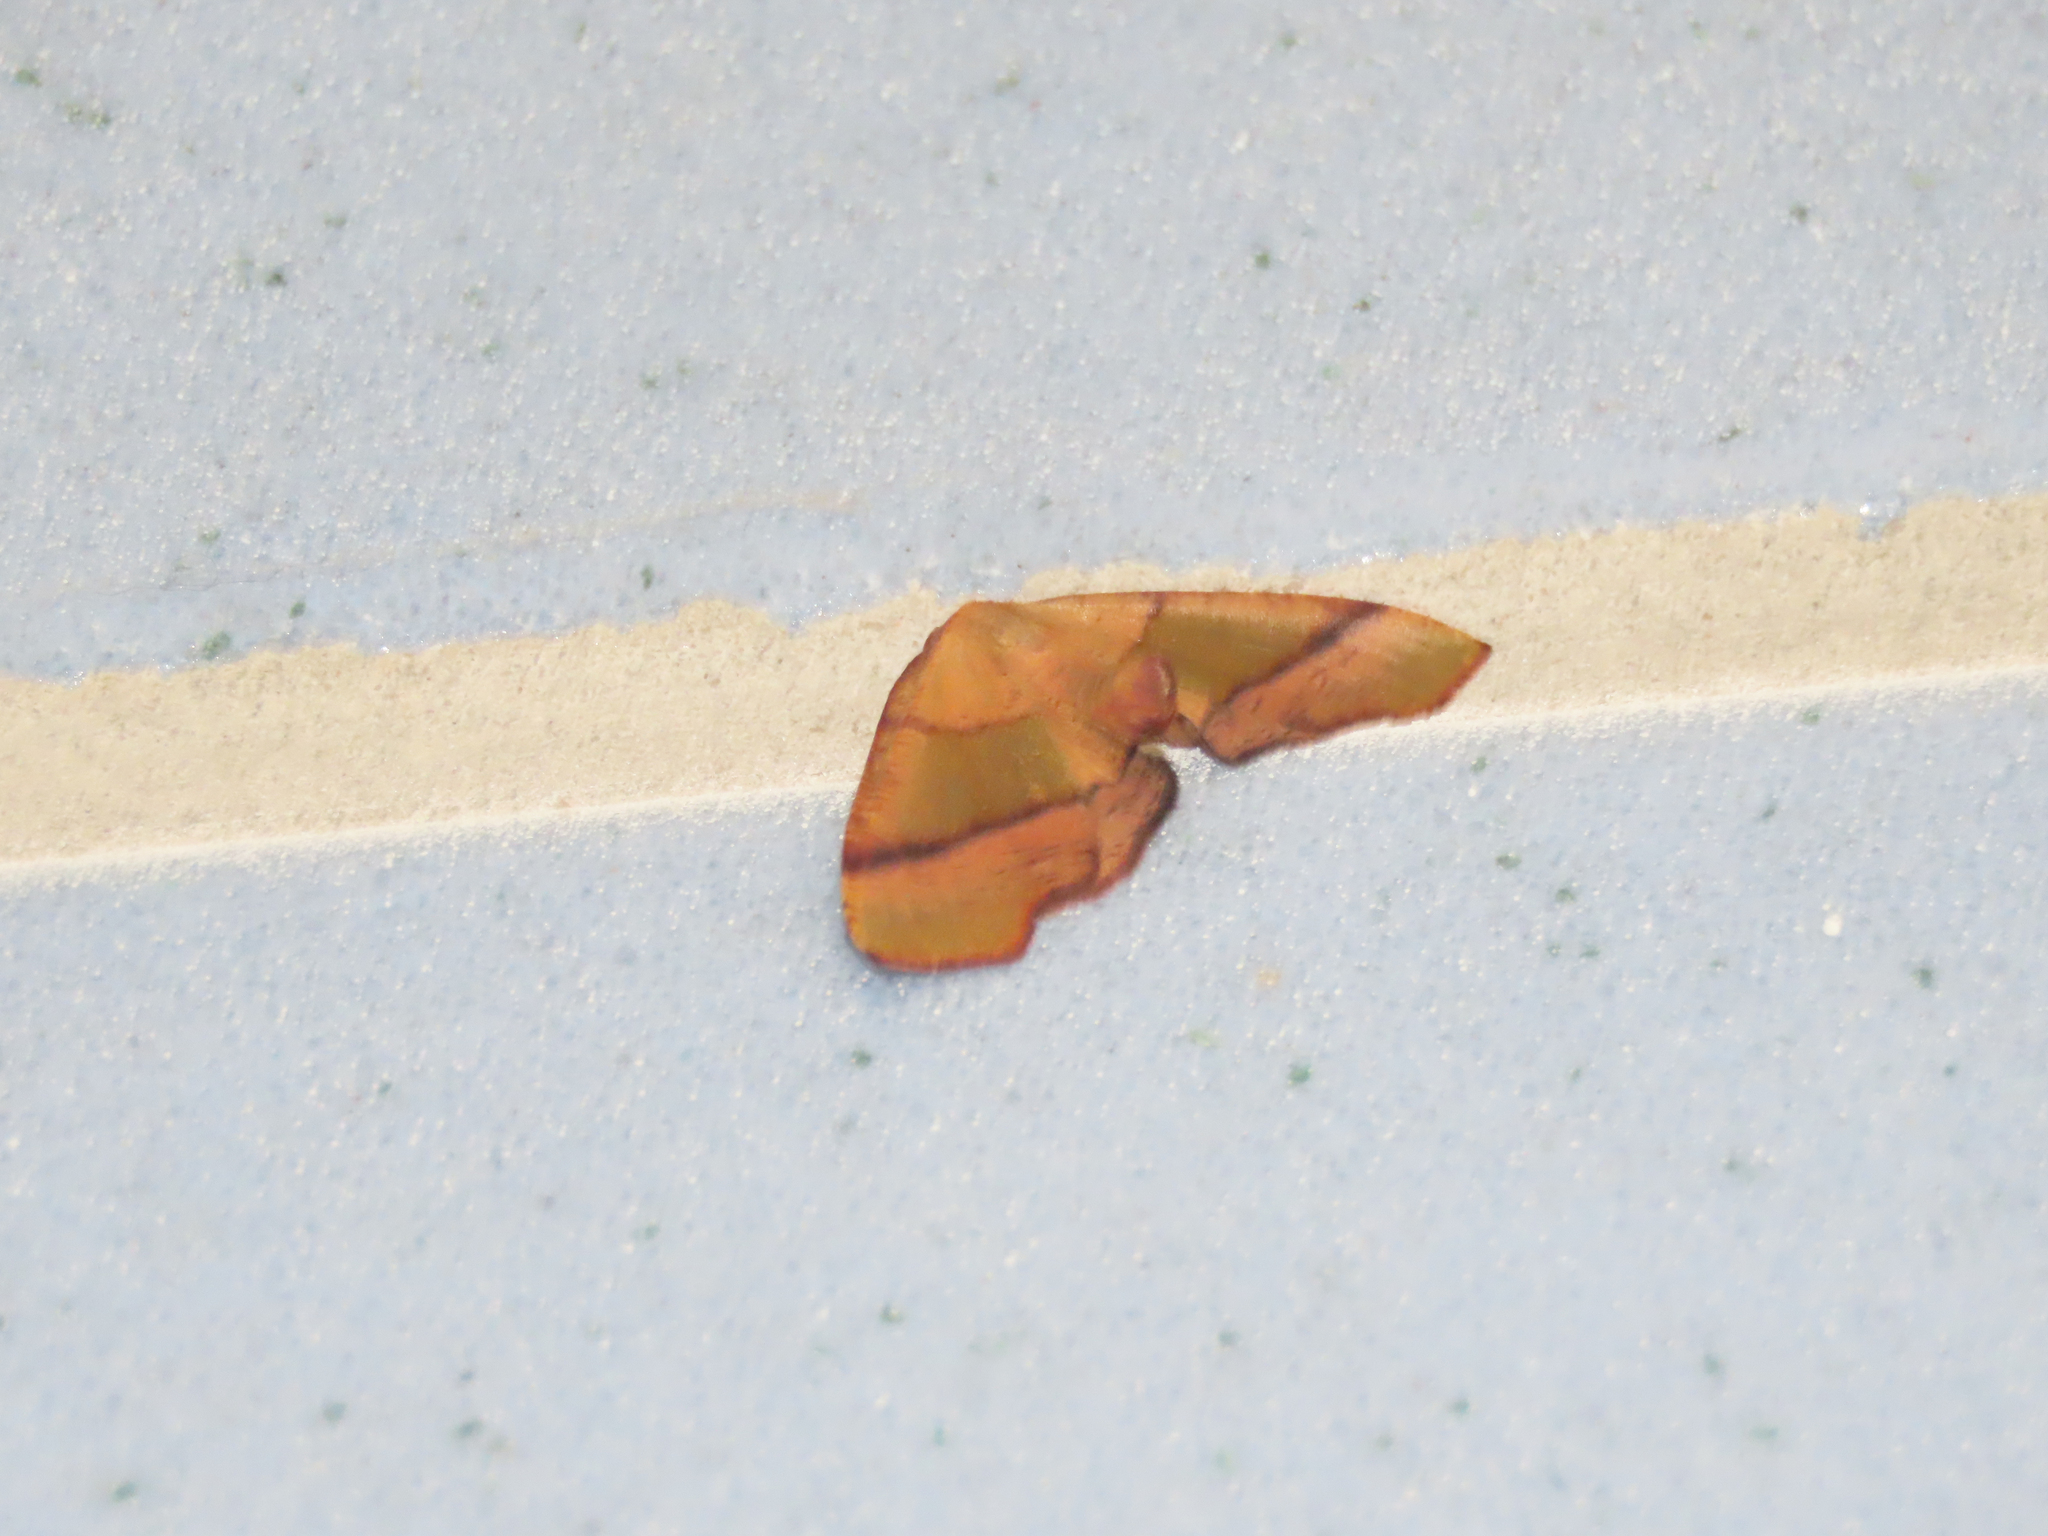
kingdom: Animalia
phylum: Arthropoda
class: Insecta
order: Lepidoptera
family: Geometridae
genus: Plagodis
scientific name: Plagodis phlogosaria
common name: Straight-lined plagodis
